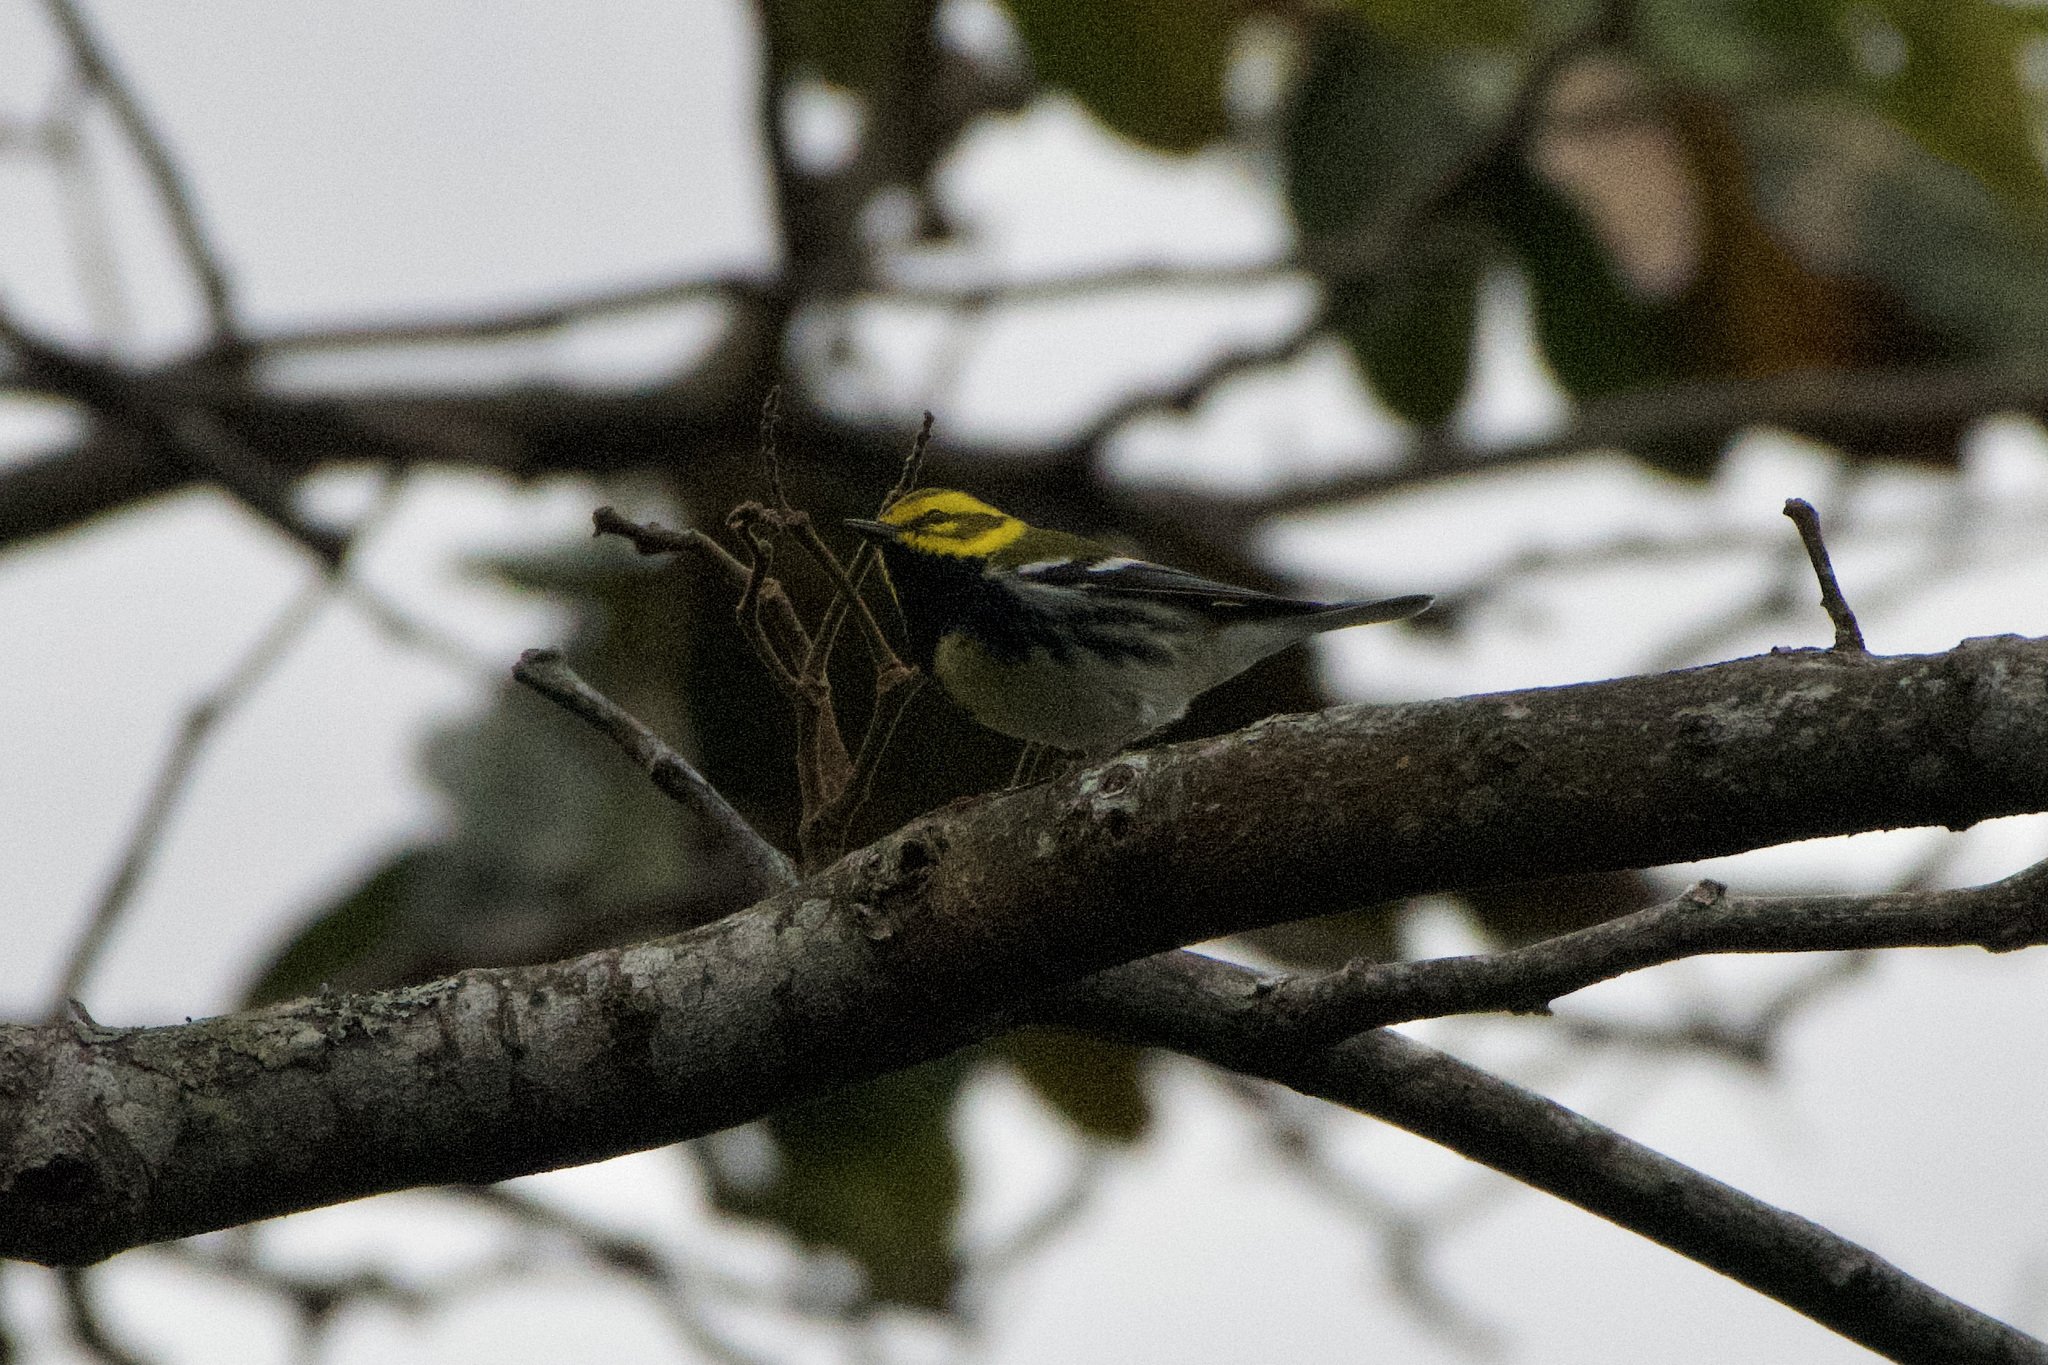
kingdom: Animalia
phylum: Chordata
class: Aves
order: Passeriformes
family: Parulidae
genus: Setophaga
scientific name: Setophaga virens
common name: Black-throated green warbler
